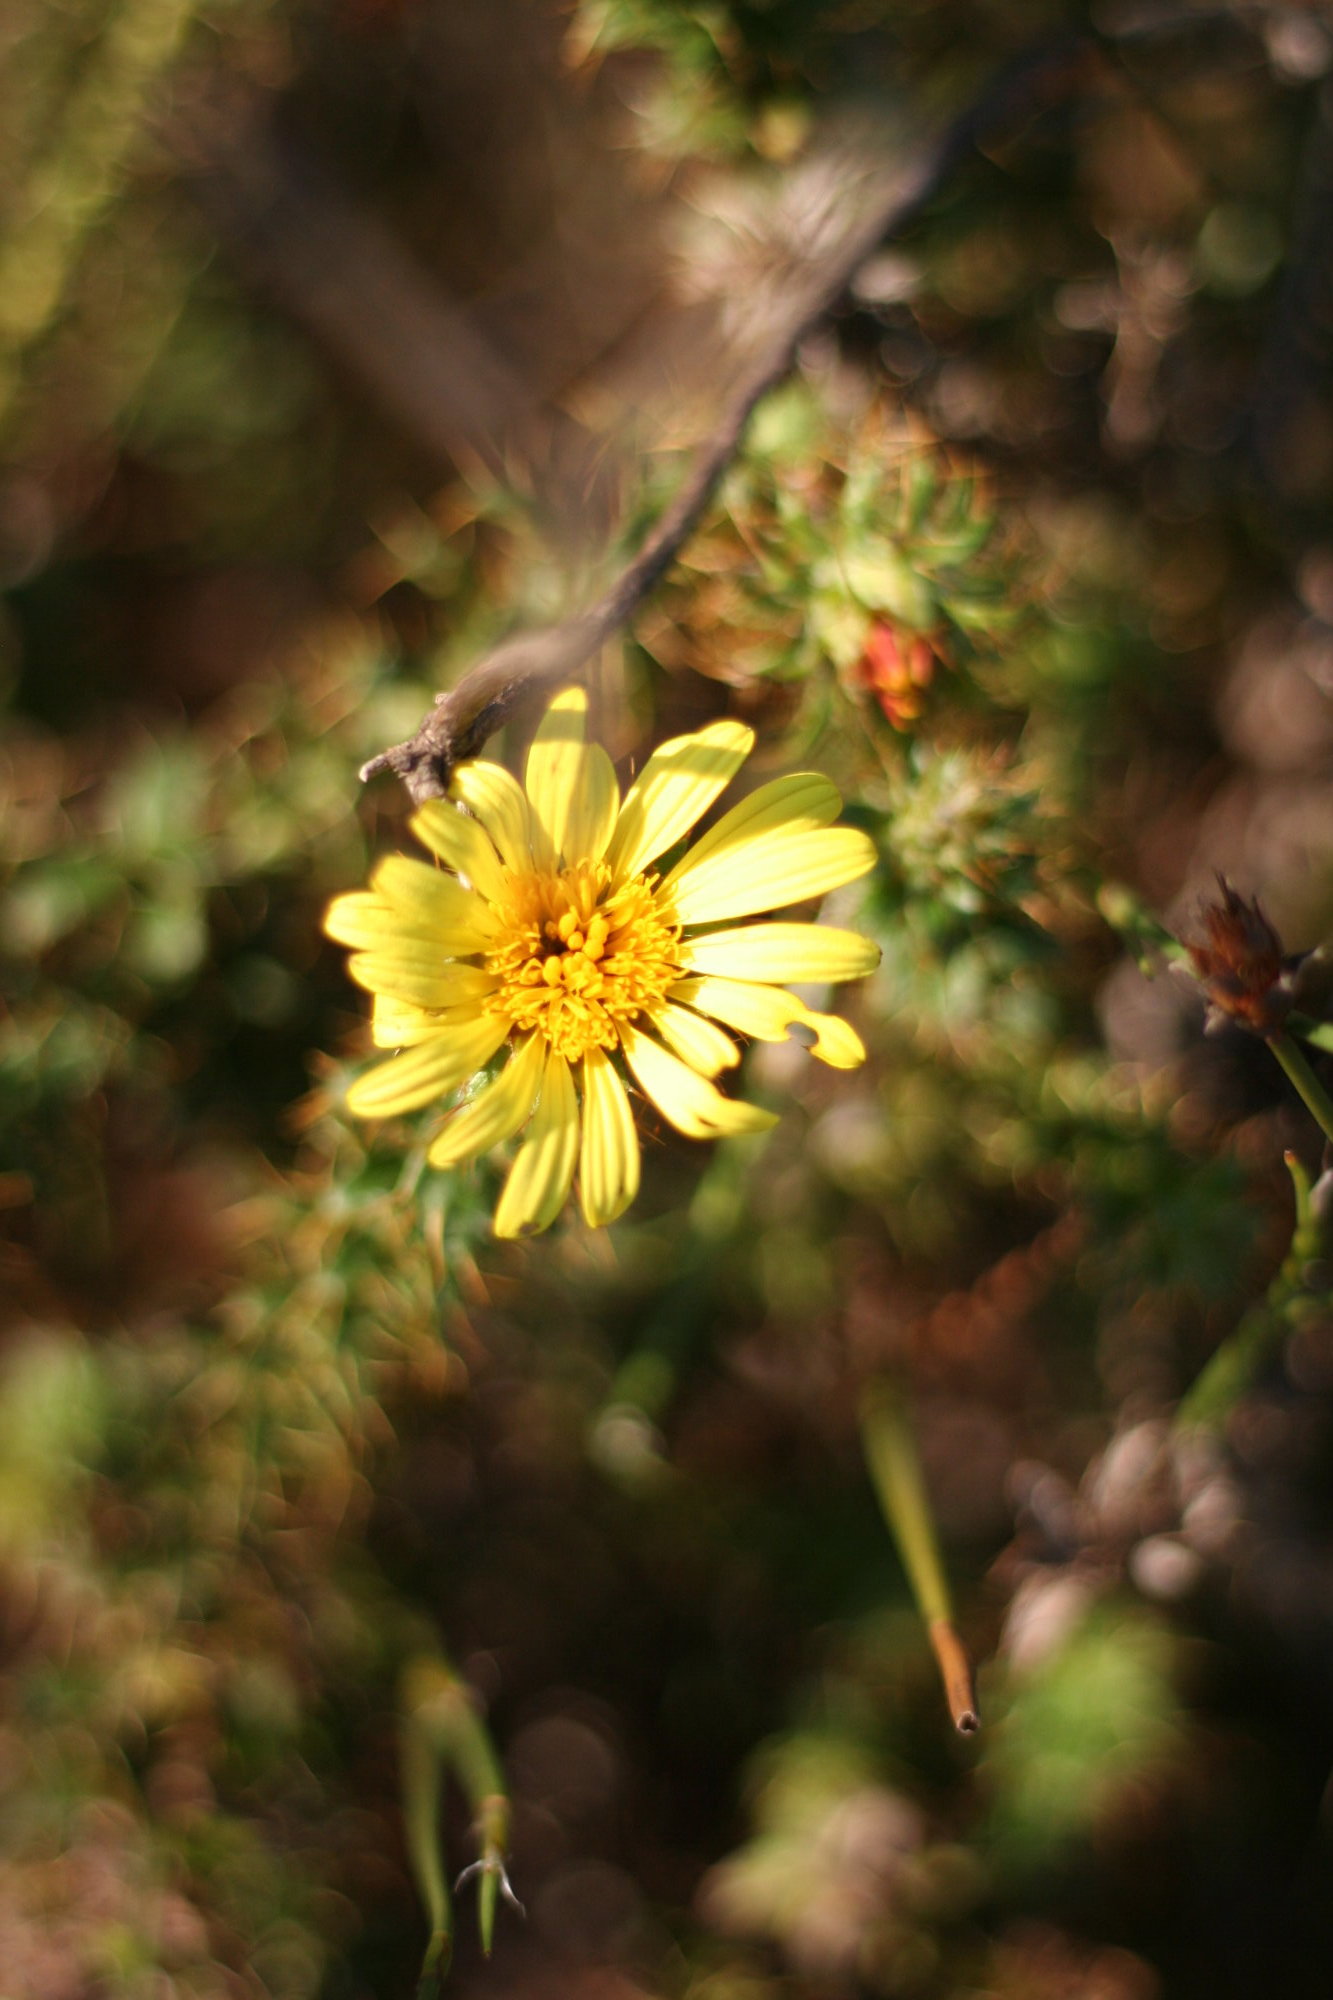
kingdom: Plantae
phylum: Tracheophyta
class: Magnoliopsida
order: Asterales
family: Asteraceae
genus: Cullumia
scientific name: Cullumia setosa
